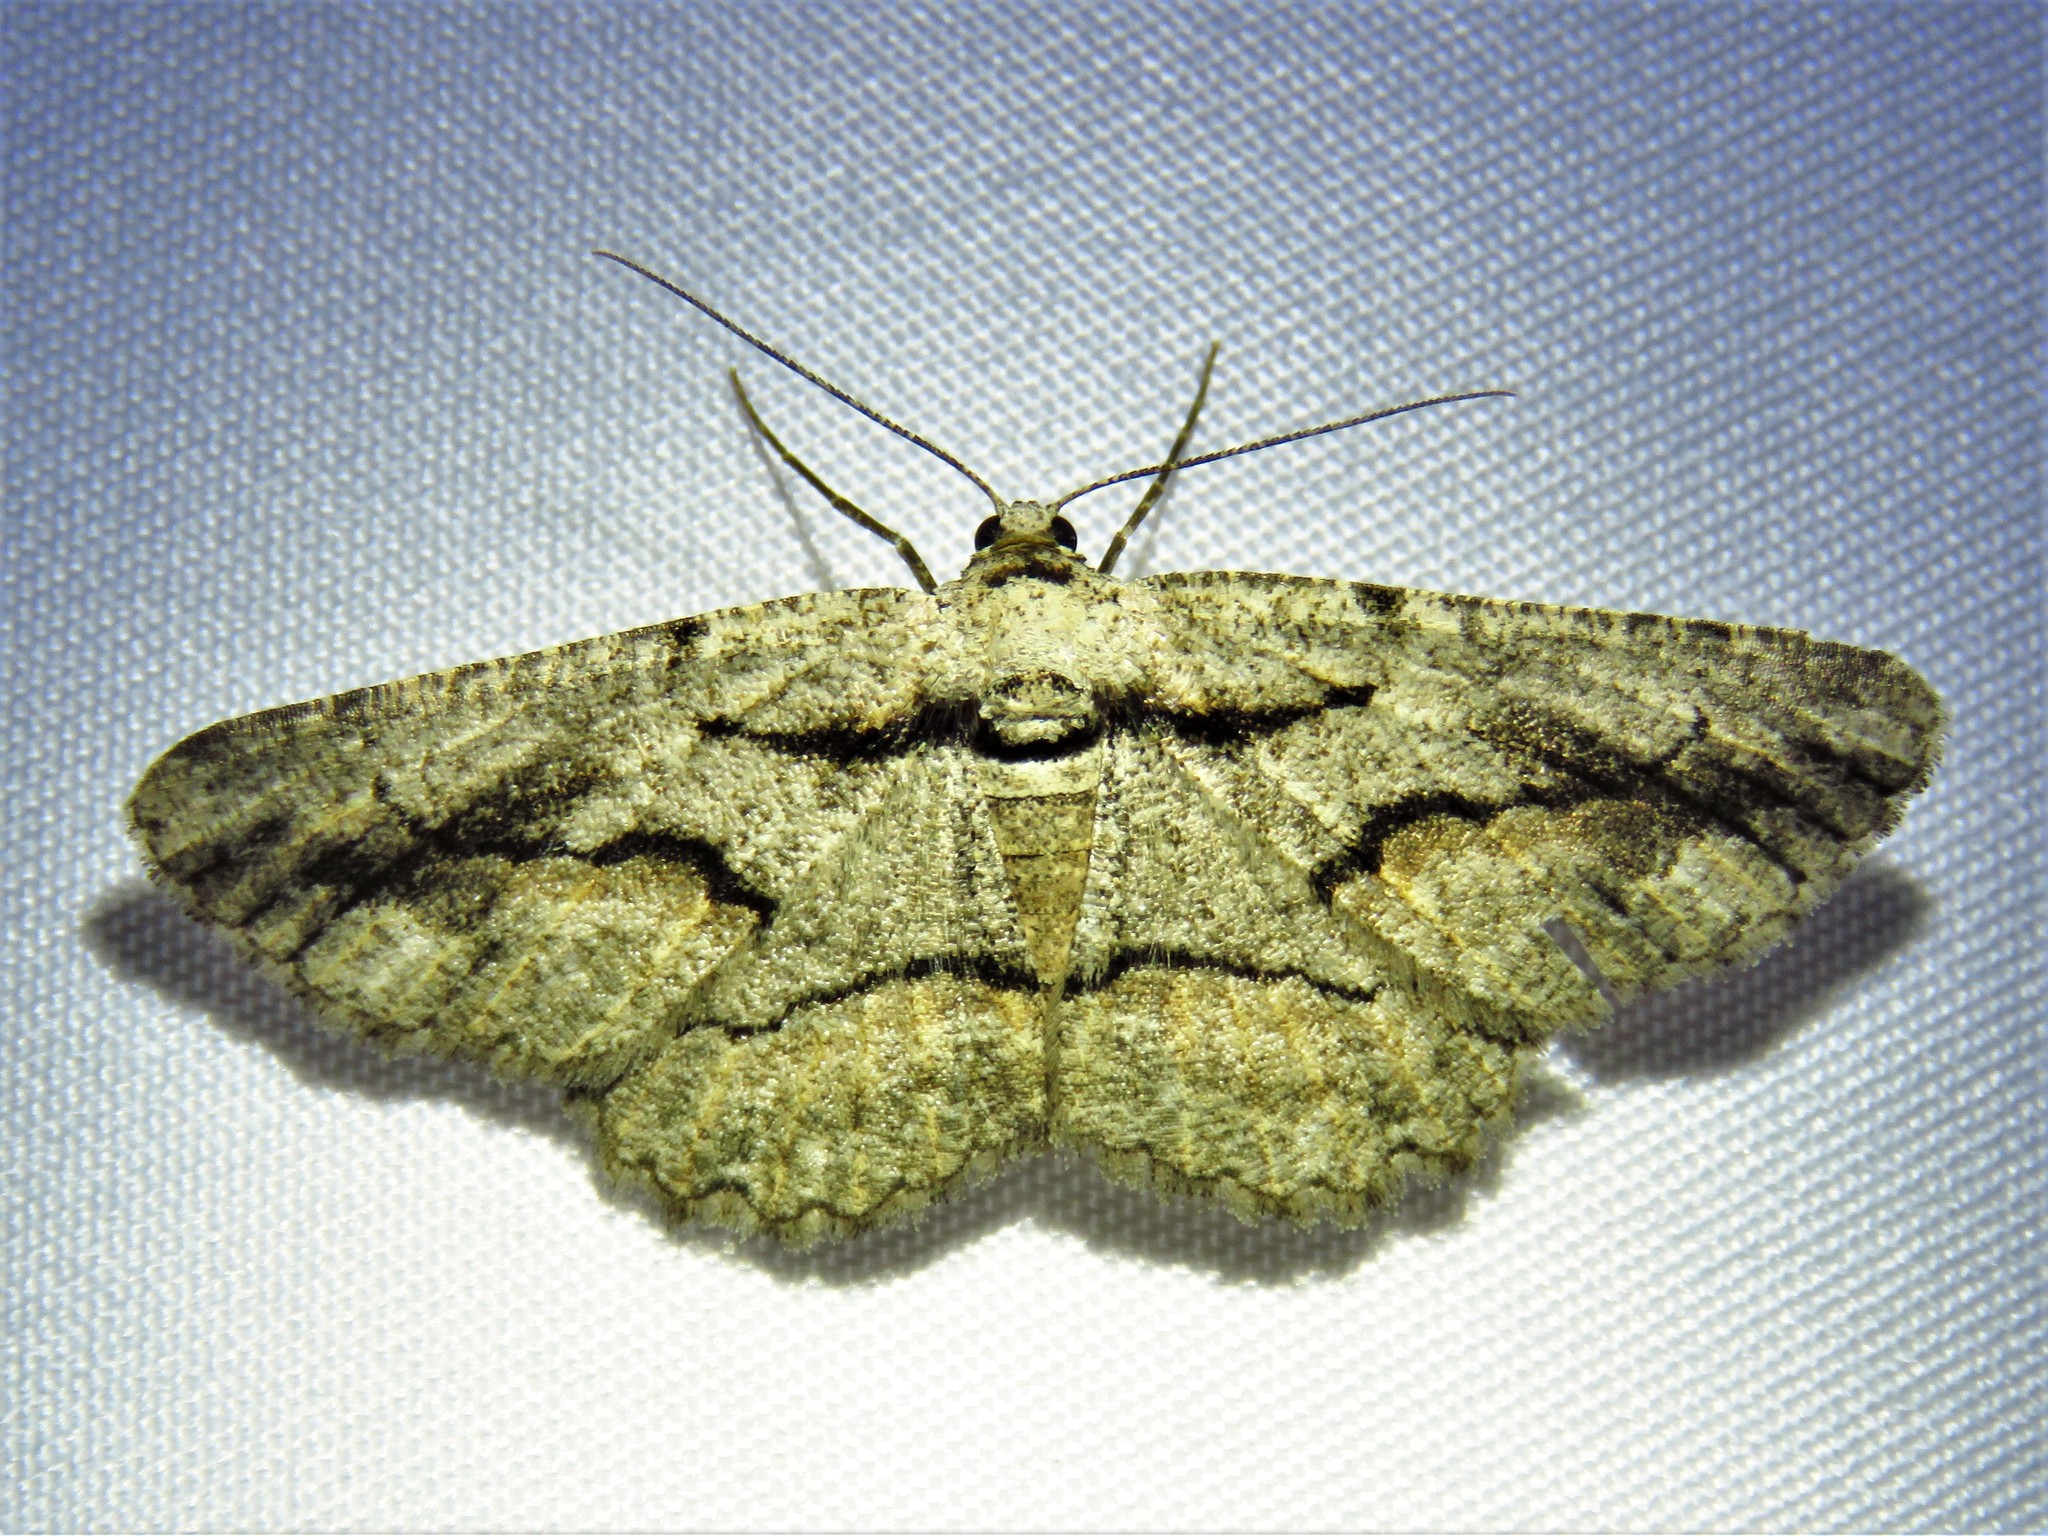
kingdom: Animalia
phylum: Arthropoda
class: Insecta
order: Lepidoptera
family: Geometridae
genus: Anavitrinella
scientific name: Anavitrinella atristrigaria
